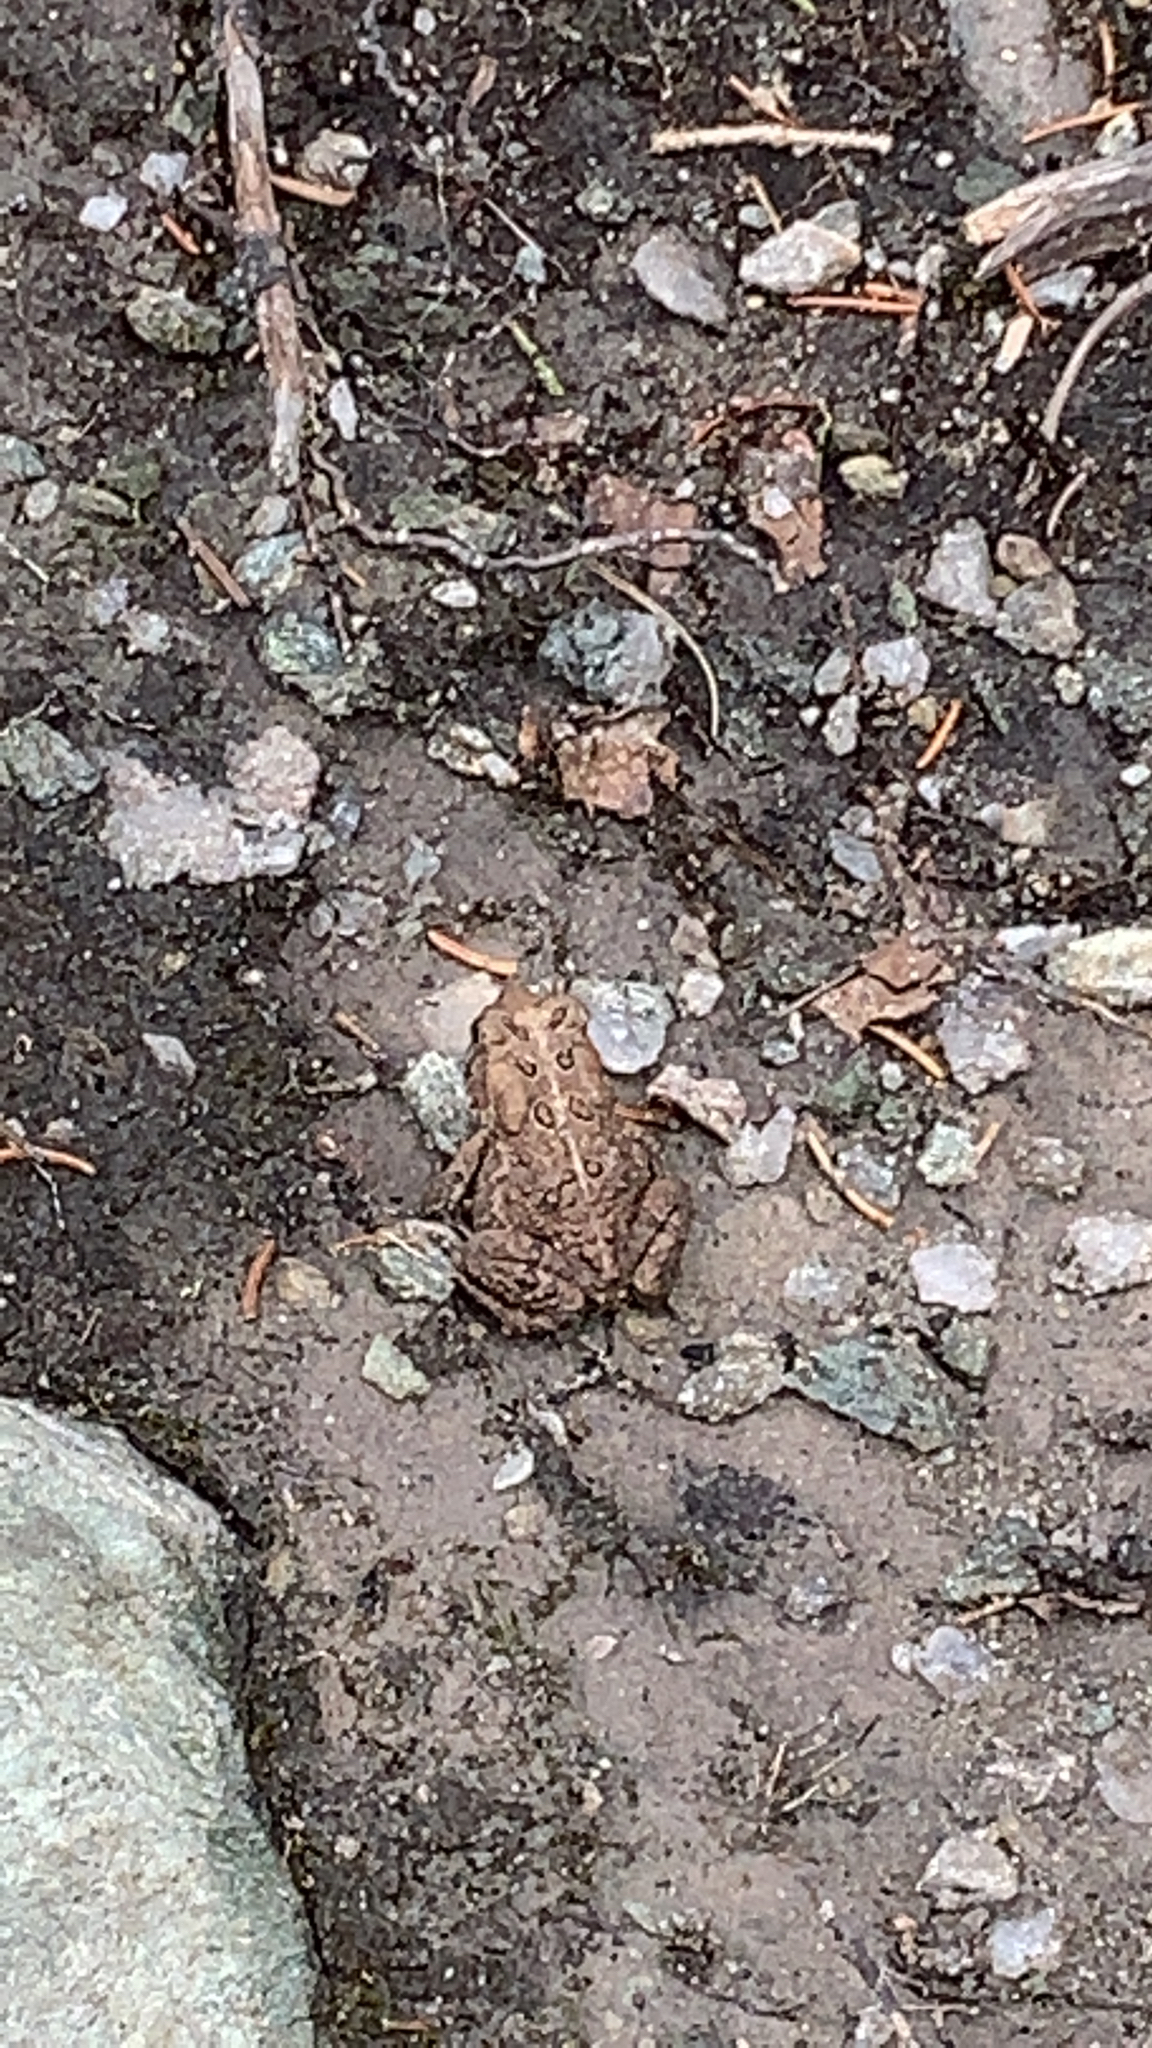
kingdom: Animalia
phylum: Chordata
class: Amphibia
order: Anura
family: Bufonidae
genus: Anaxyrus
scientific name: Anaxyrus americanus
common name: American toad
